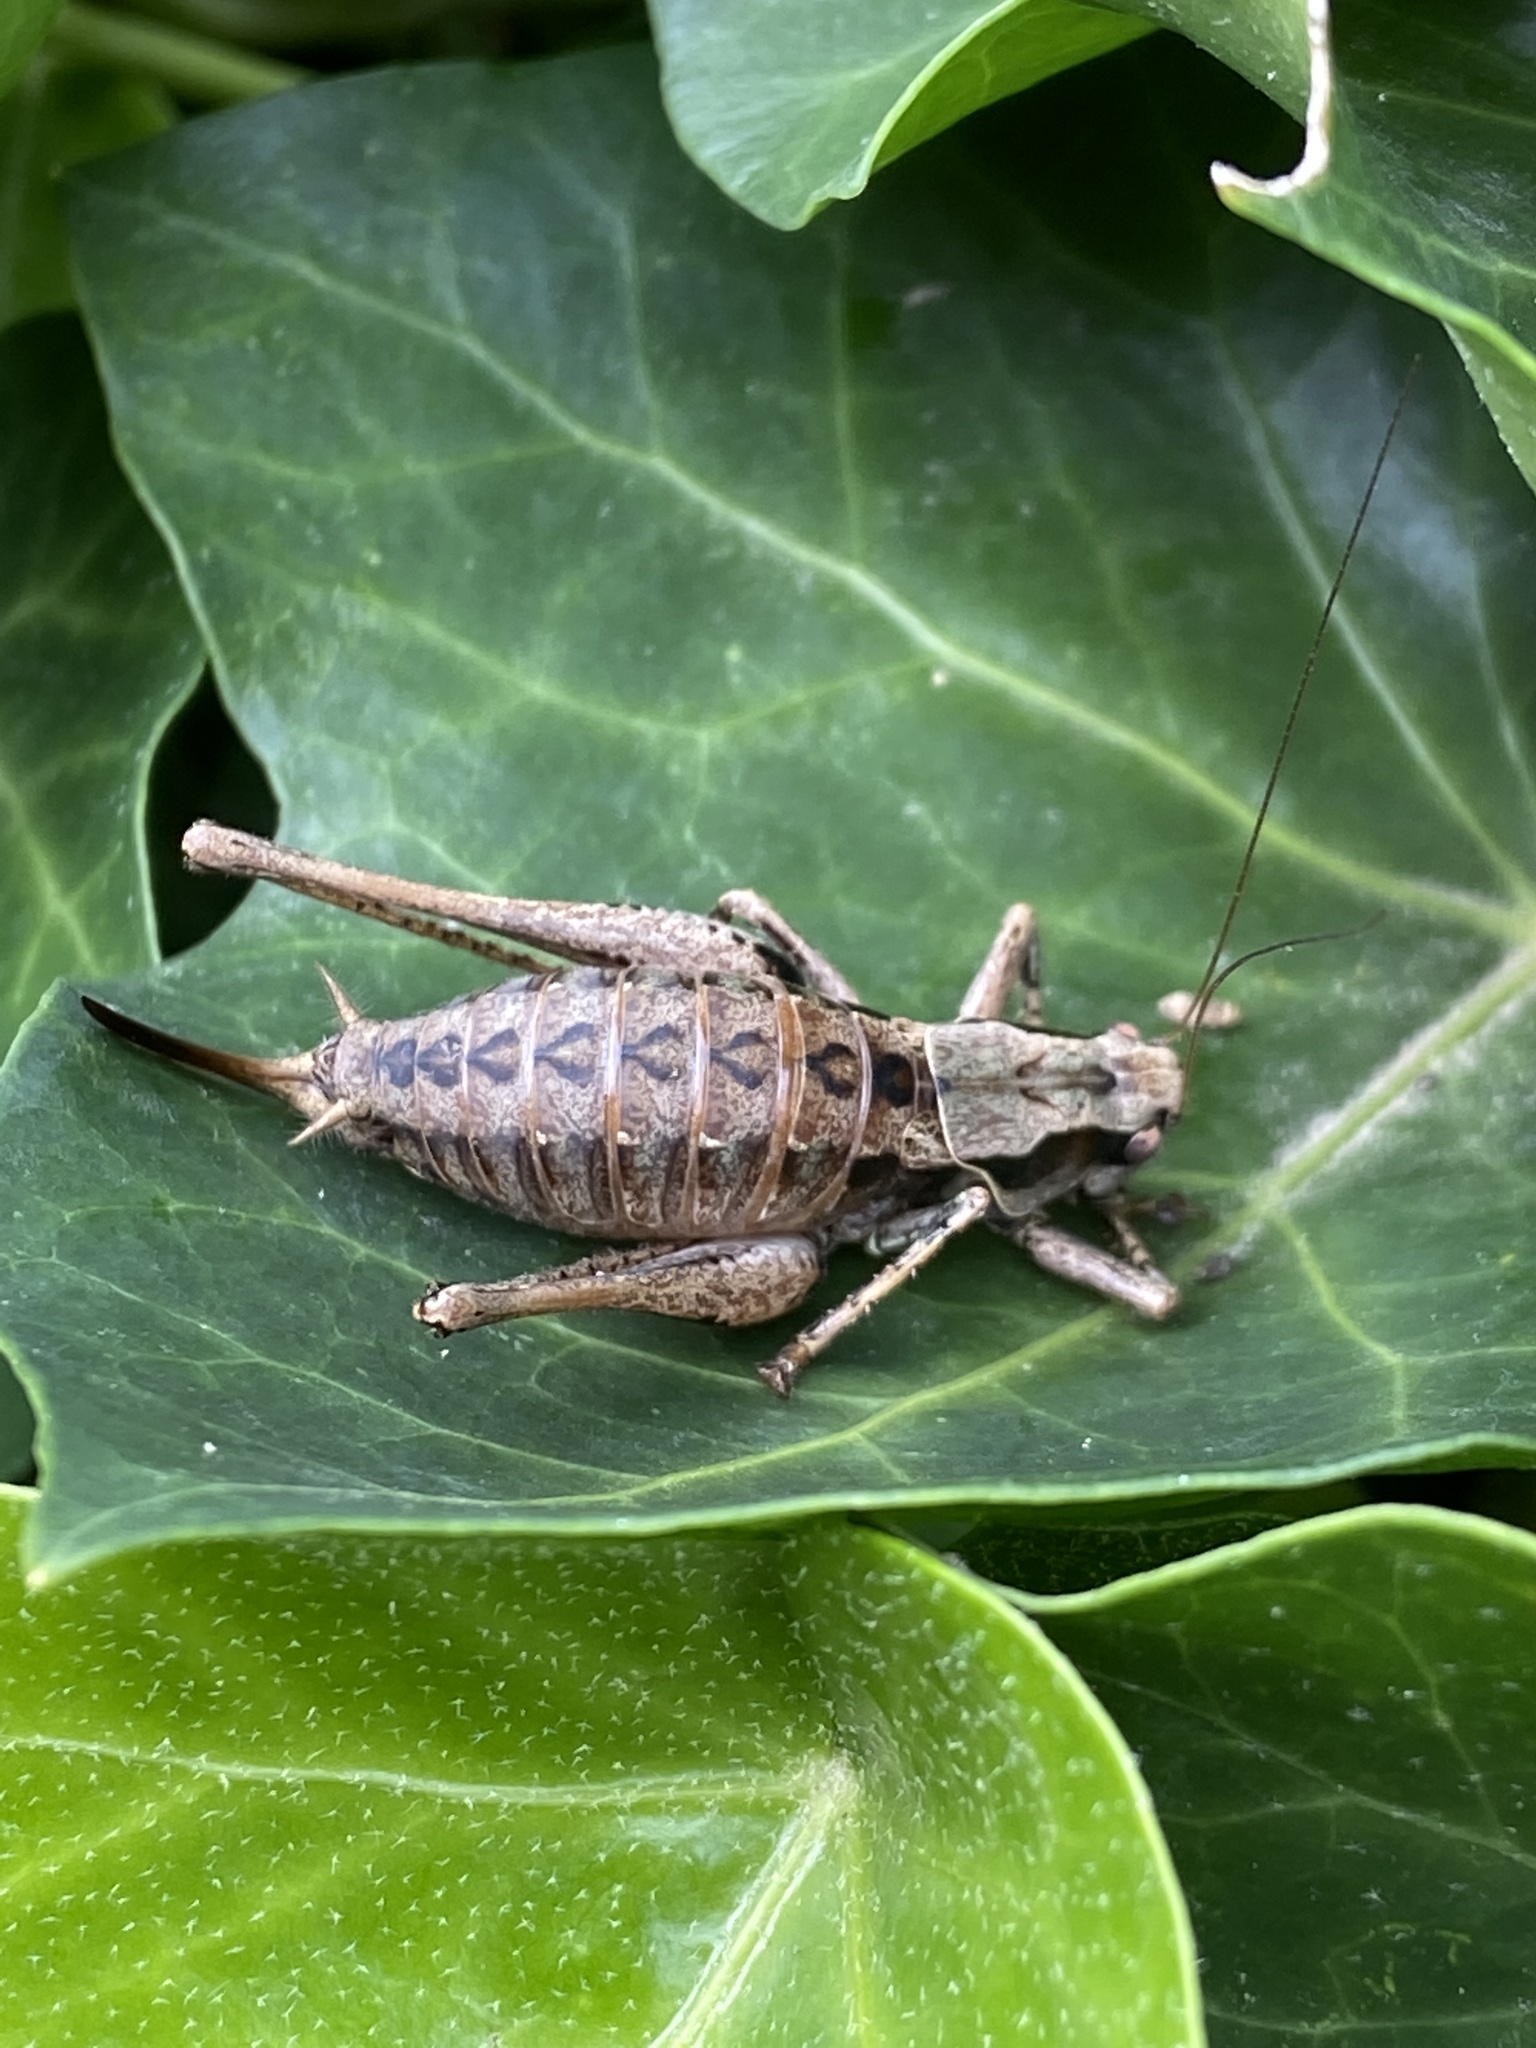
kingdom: Animalia
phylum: Arthropoda
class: Insecta
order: Orthoptera
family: Tettigoniidae
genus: Pholidoptera
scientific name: Pholidoptera griseoaptera
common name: Dark bush-cricket
